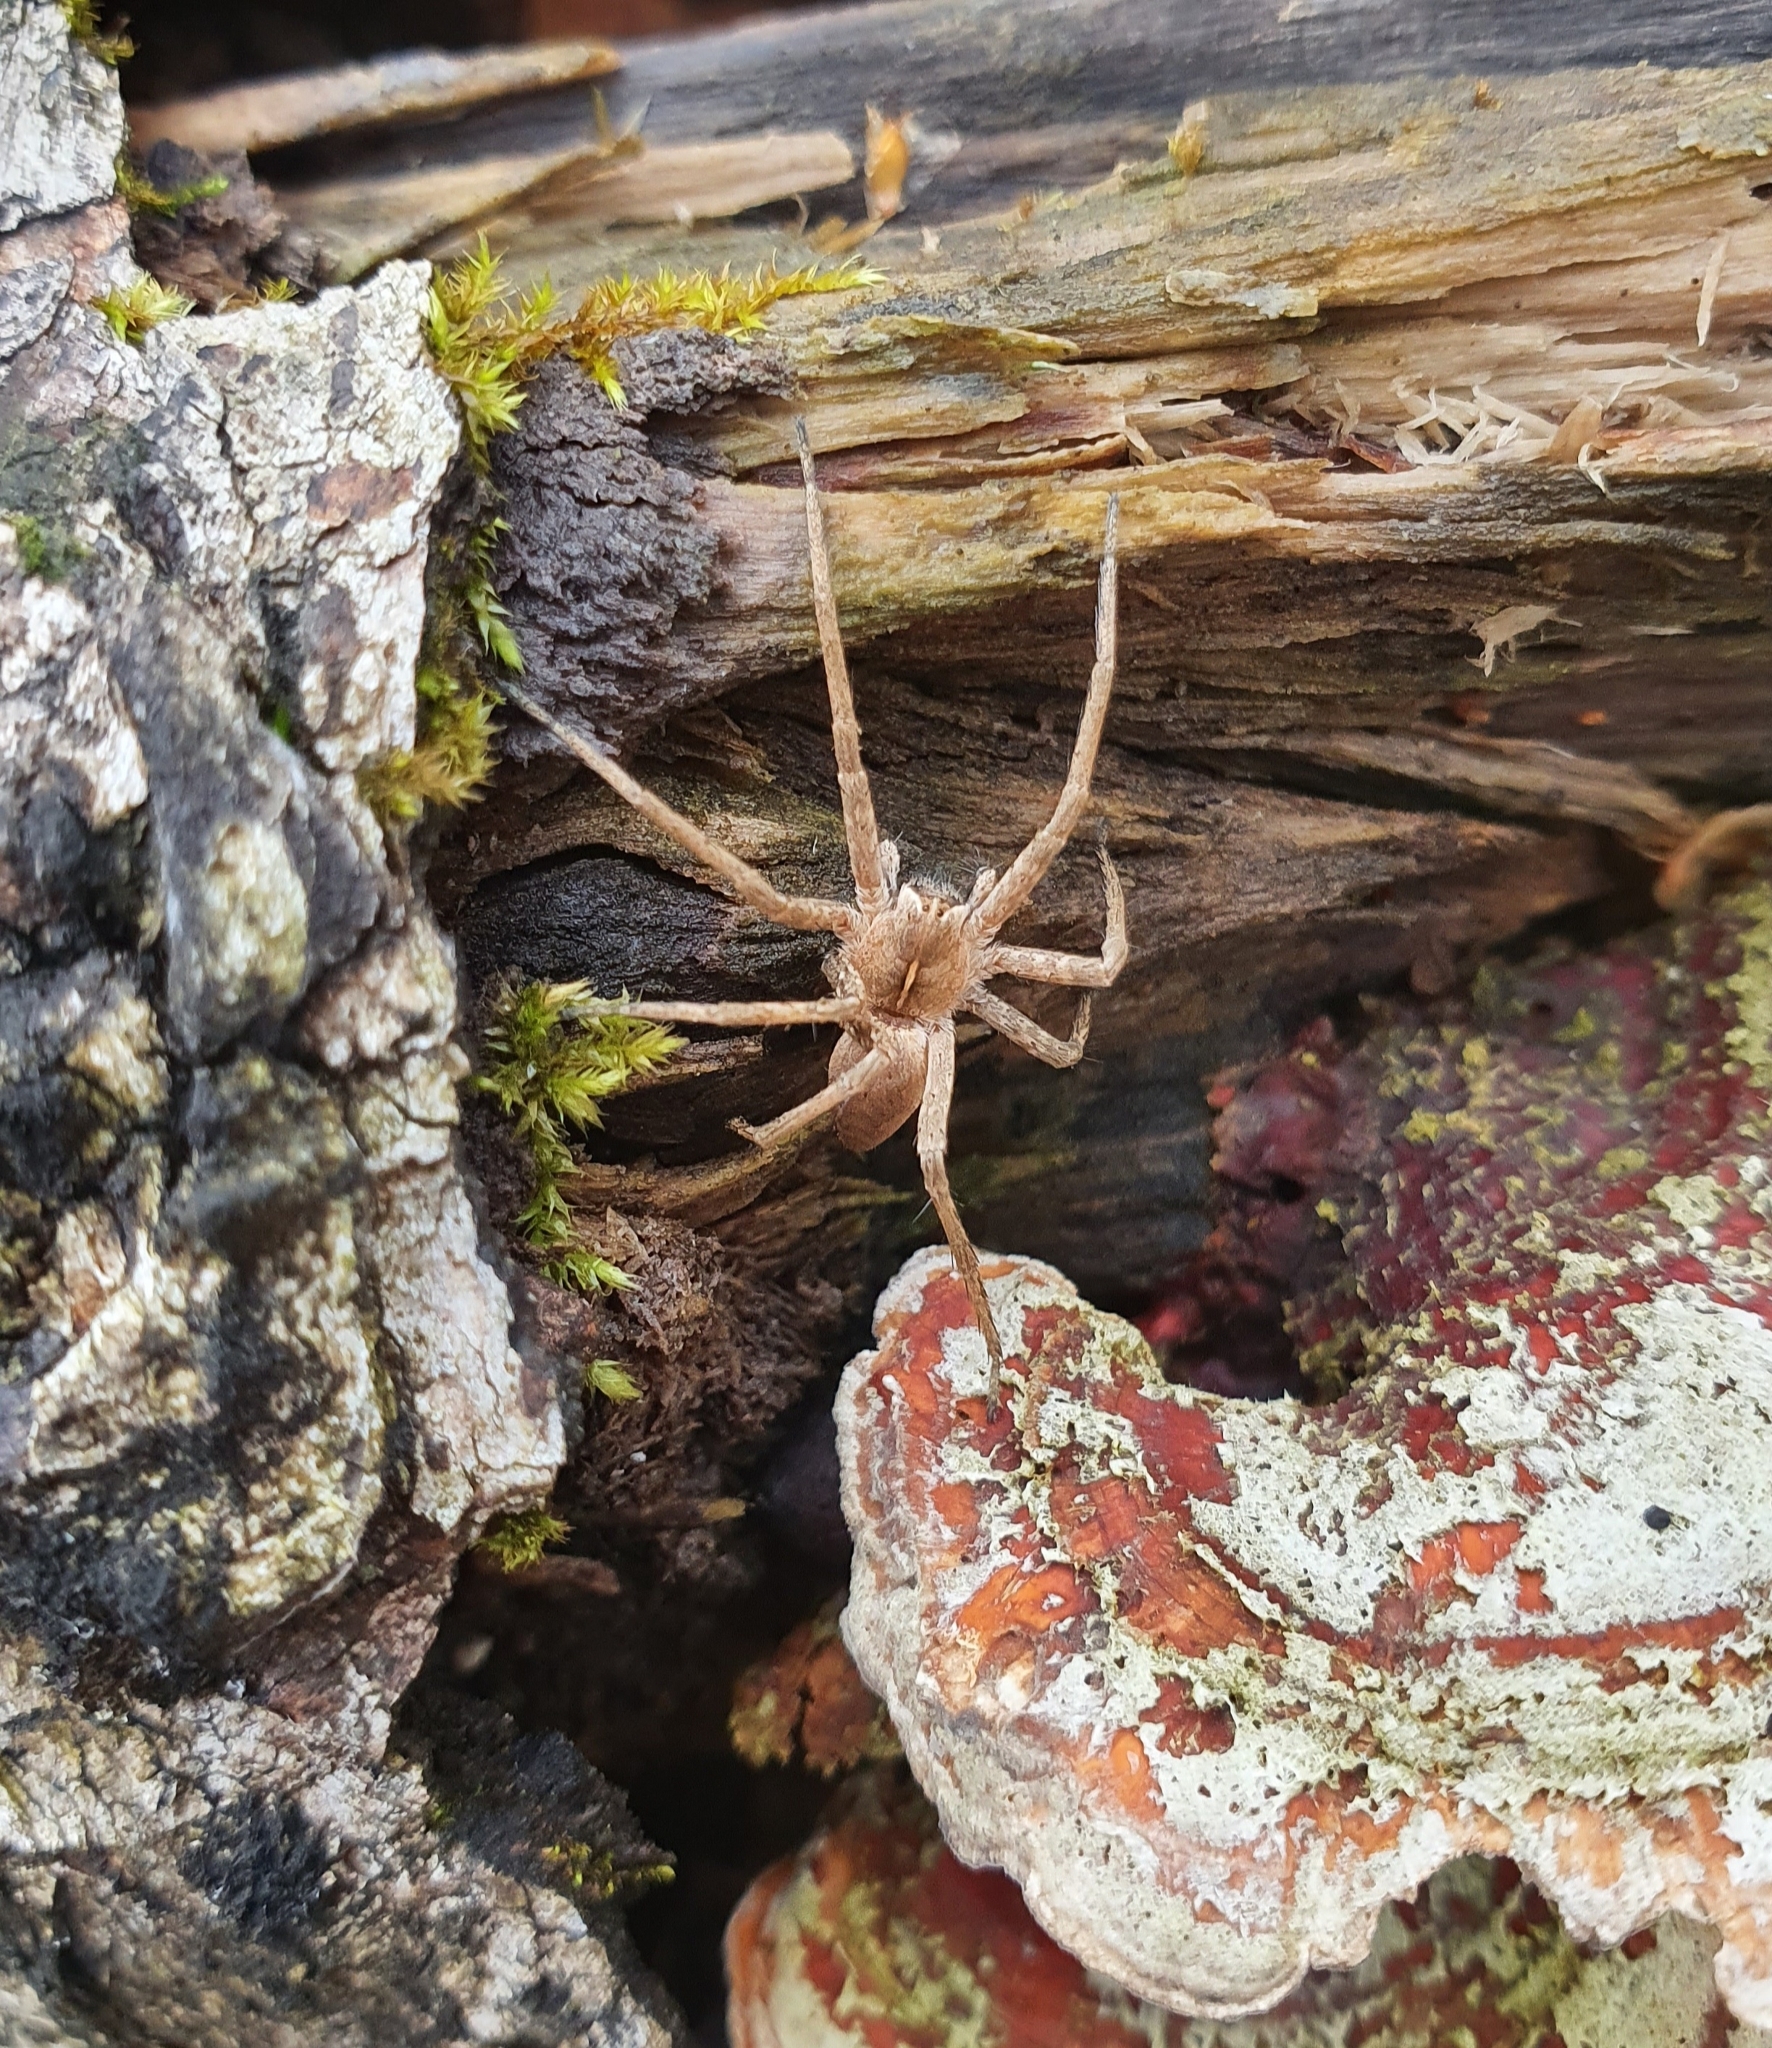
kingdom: Animalia
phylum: Arthropoda
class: Arachnida
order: Araneae
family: Pisauridae
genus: Pisaura
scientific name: Pisaura
